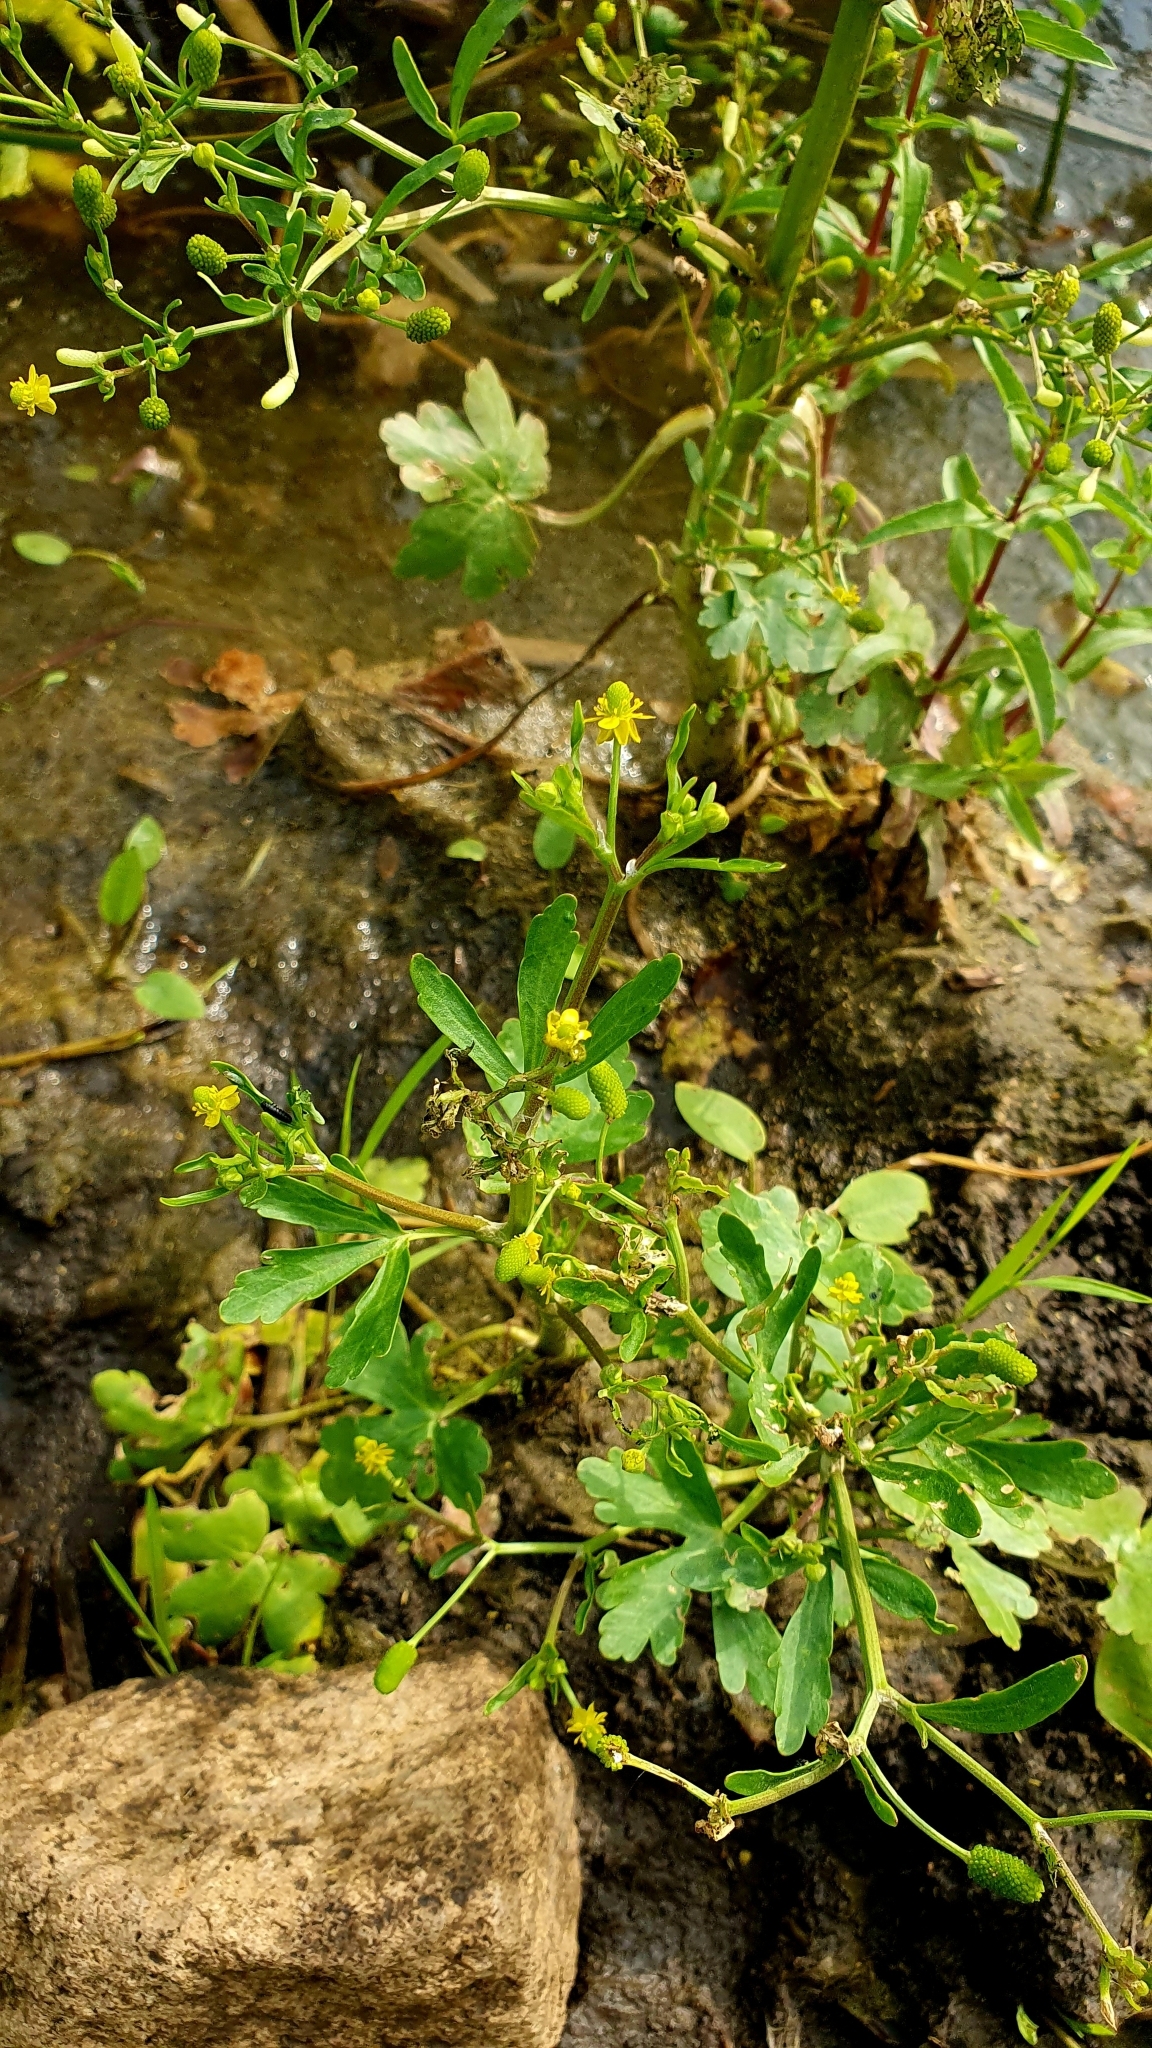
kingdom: Plantae
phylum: Tracheophyta
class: Magnoliopsida
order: Ranunculales
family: Ranunculaceae
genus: Ranunculus
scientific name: Ranunculus sceleratus
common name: Celery-leaved buttercup
